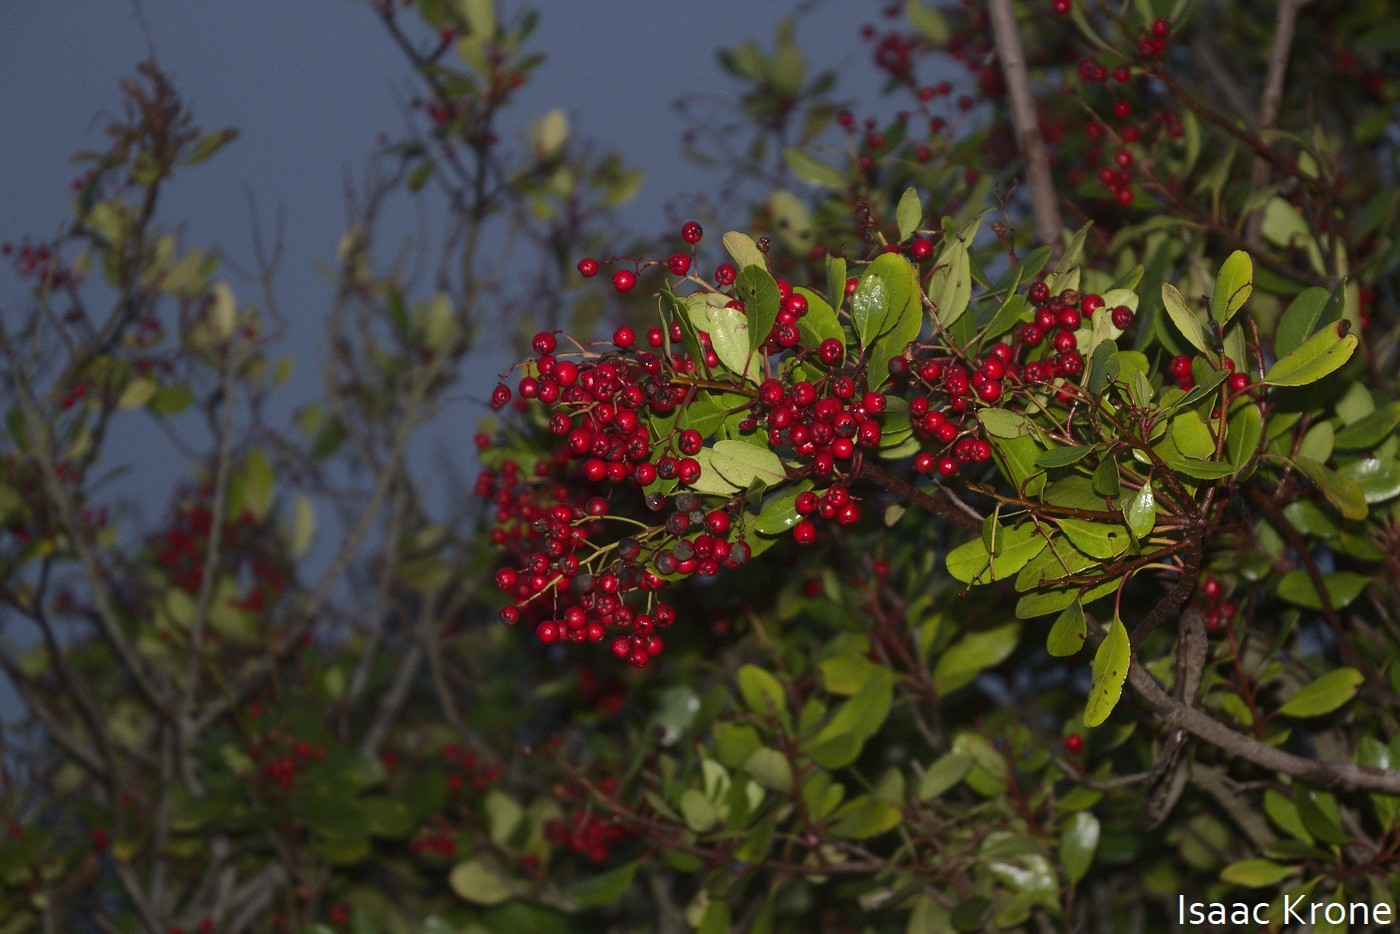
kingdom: Plantae
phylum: Tracheophyta
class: Magnoliopsida
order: Rosales
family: Rosaceae
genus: Heteromeles
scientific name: Heteromeles arbutifolia
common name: California-holly
